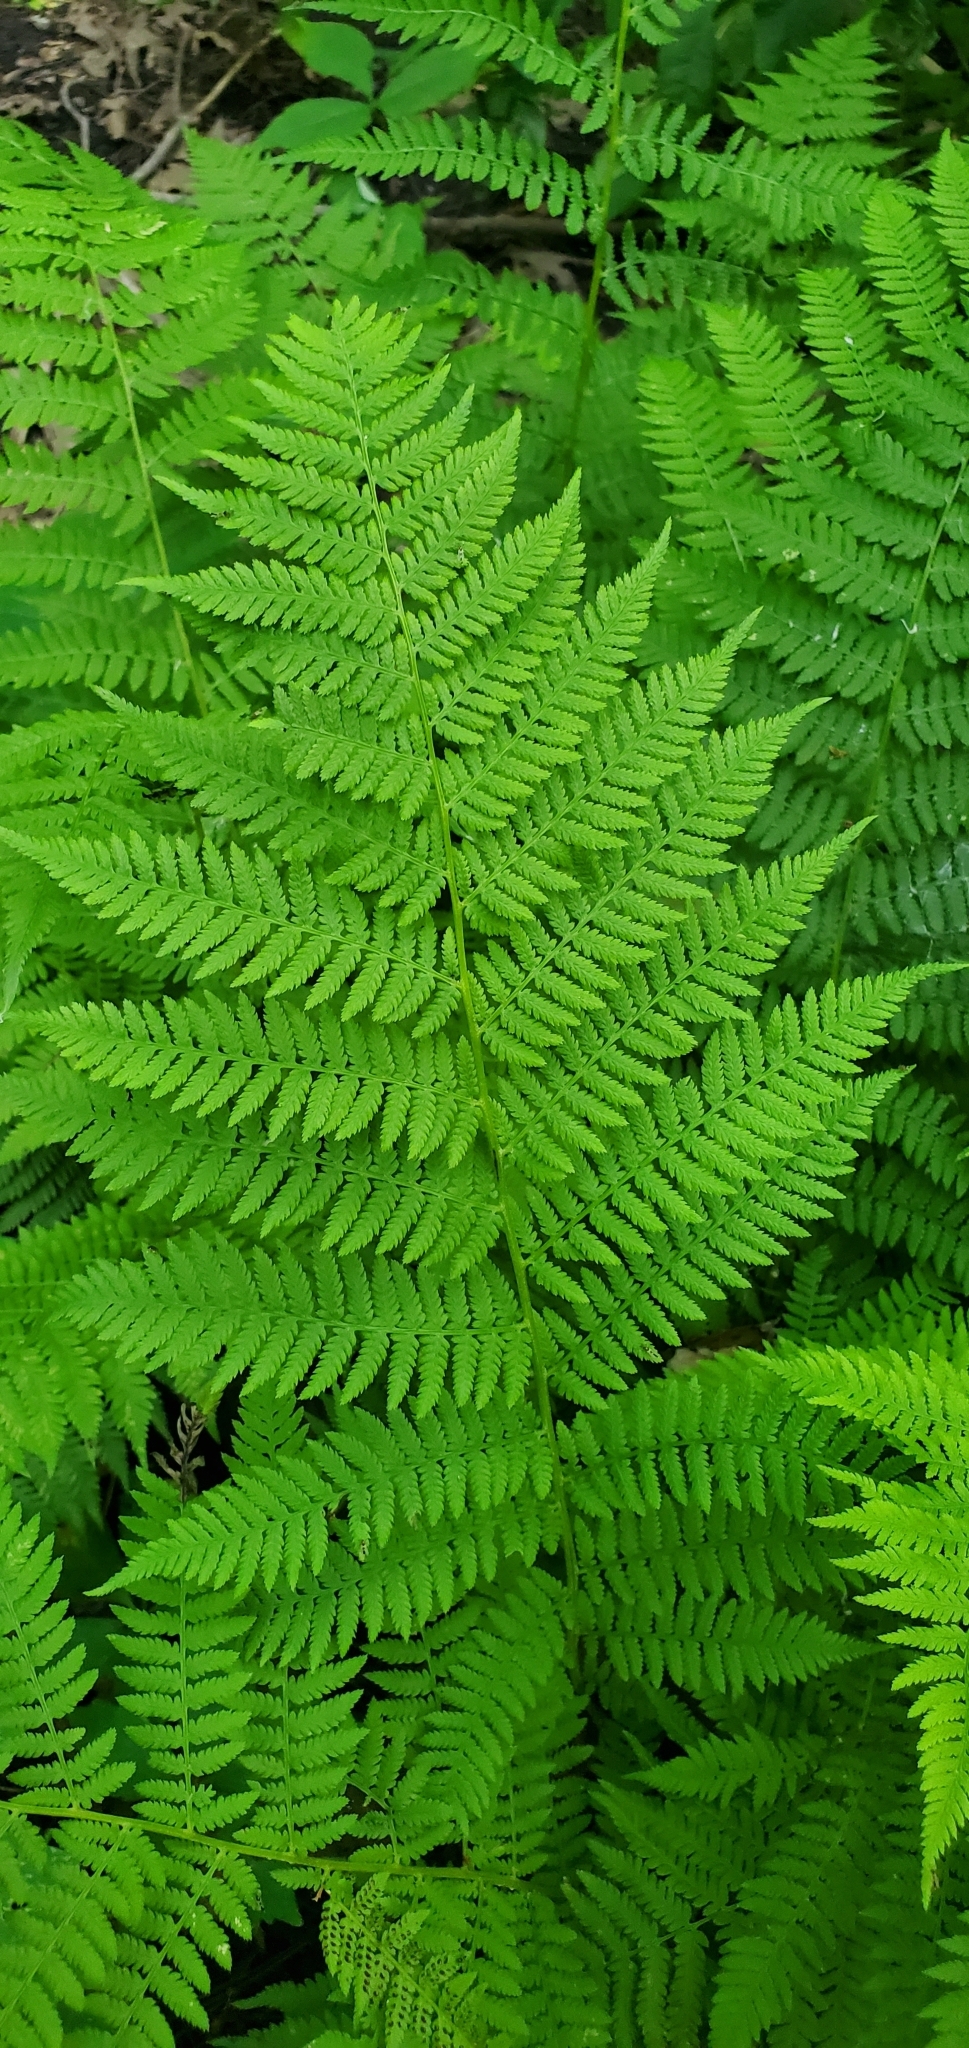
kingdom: Plantae
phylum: Tracheophyta
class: Polypodiopsida
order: Polypodiales
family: Athyriaceae
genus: Athyrium
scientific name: Athyrium angustum
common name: Northern lady fern
